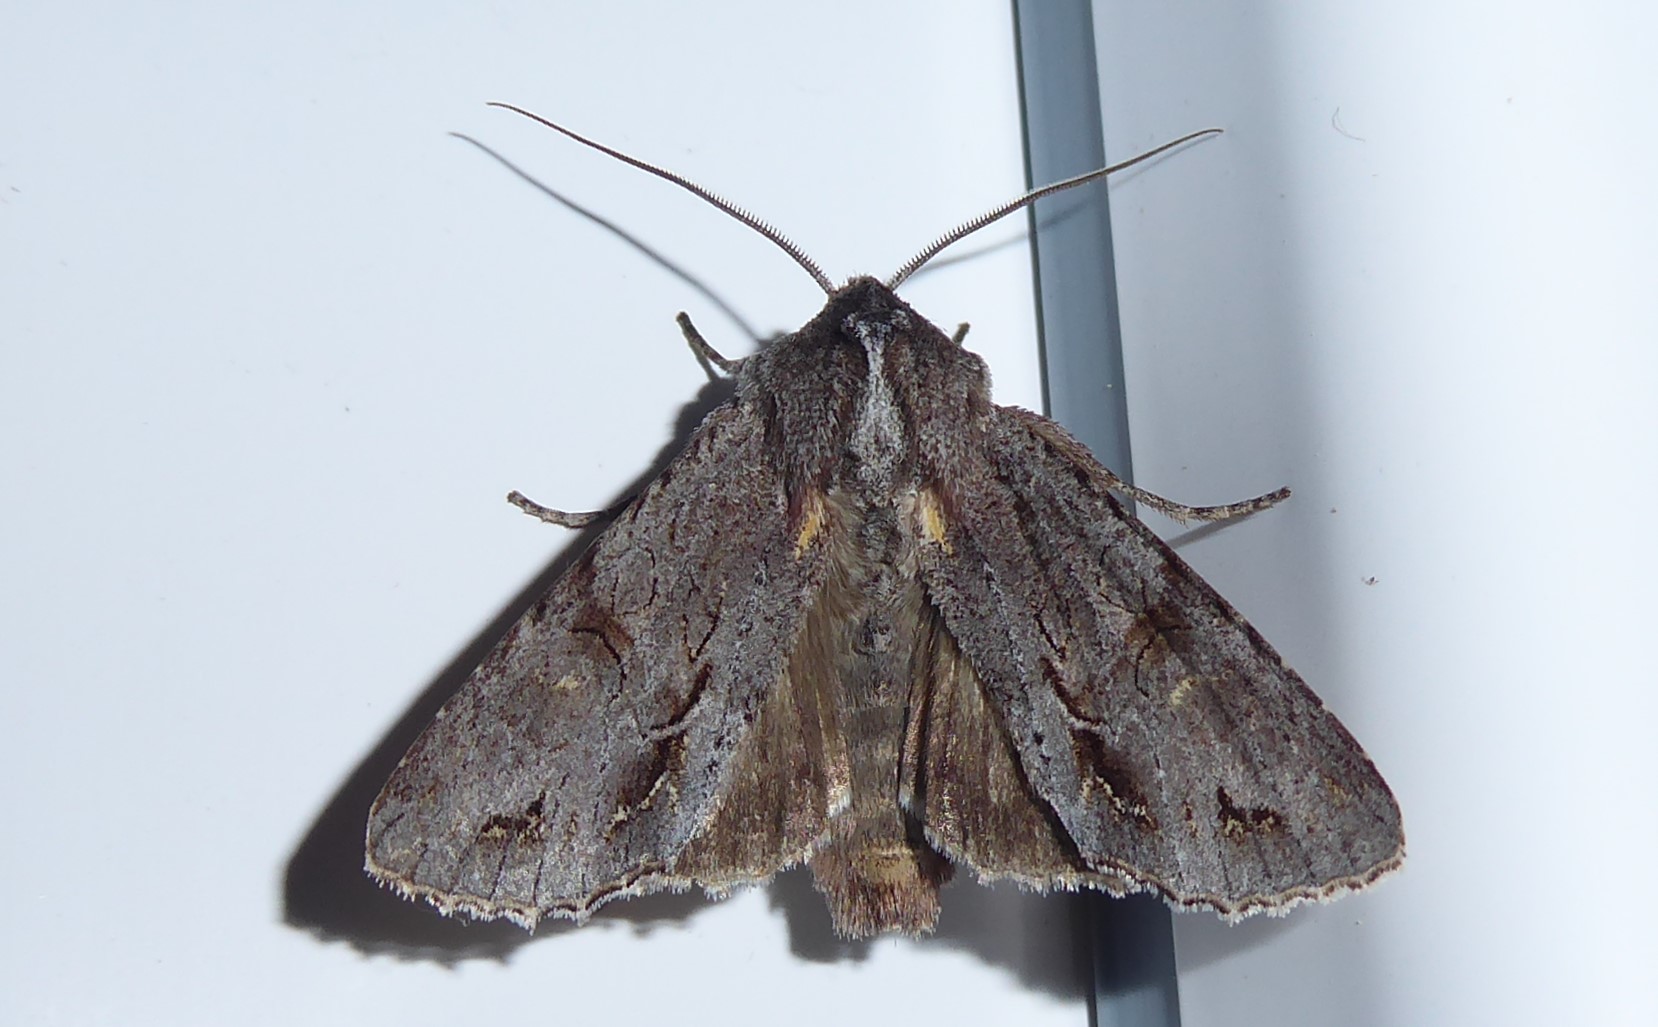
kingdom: Animalia
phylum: Arthropoda
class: Insecta
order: Lepidoptera
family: Noctuidae
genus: Ichneutica
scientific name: Ichneutica
